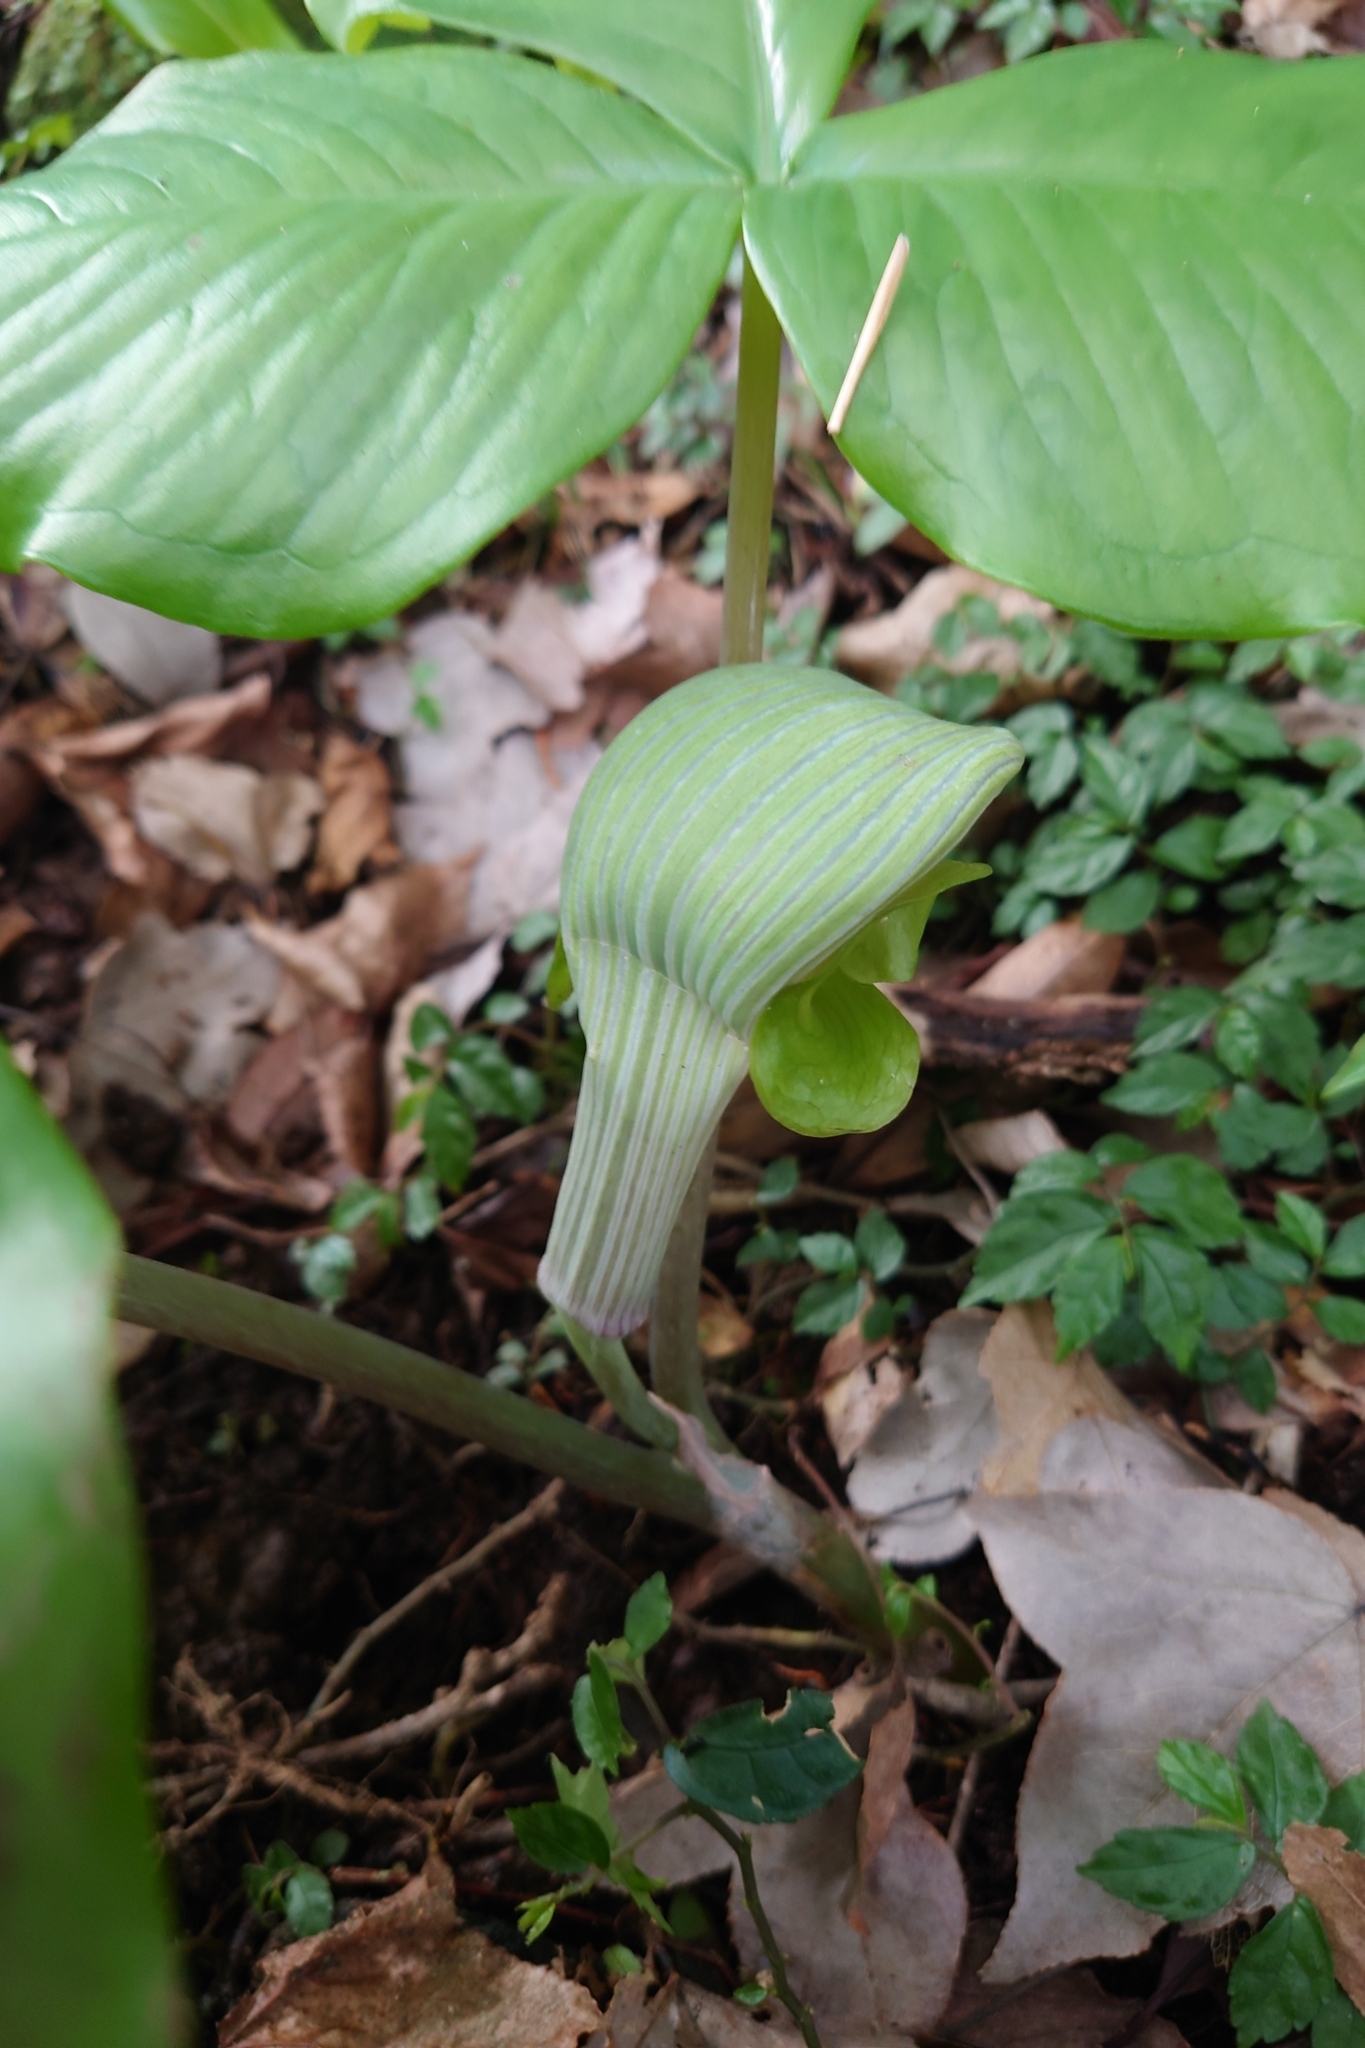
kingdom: Plantae
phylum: Tracheophyta
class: Liliopsida
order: Alismatales
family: Araceae
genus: Arisaema
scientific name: Arisaema ringens
